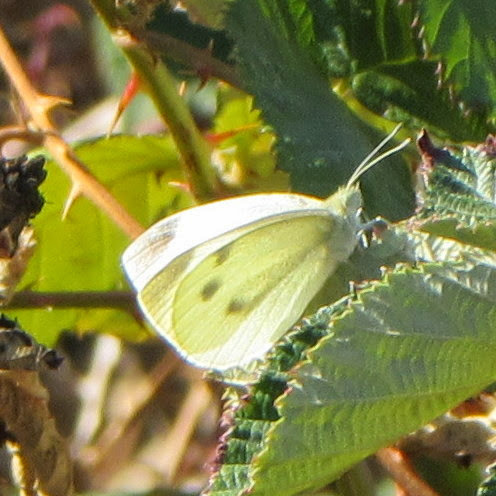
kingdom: Animalia
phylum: Arthropoda
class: Insecta
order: Lepidoptera
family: Pieridae
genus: Pieris
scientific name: Pieris rapae
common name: Small white
